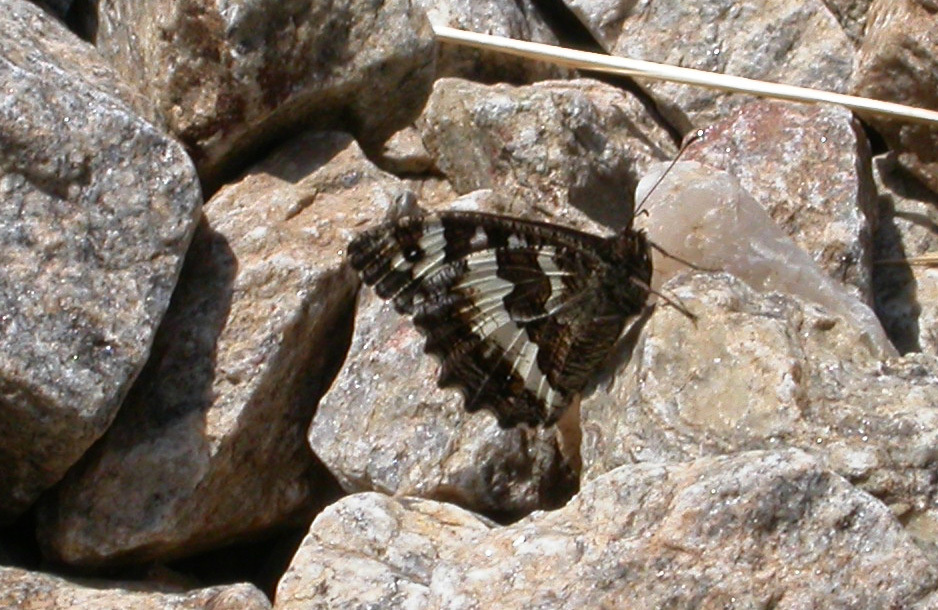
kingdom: Animalia
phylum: Arthropoda
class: Insecta
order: Lepidoptera
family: Lycaenidae
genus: Loweia
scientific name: Loweia tityrus
